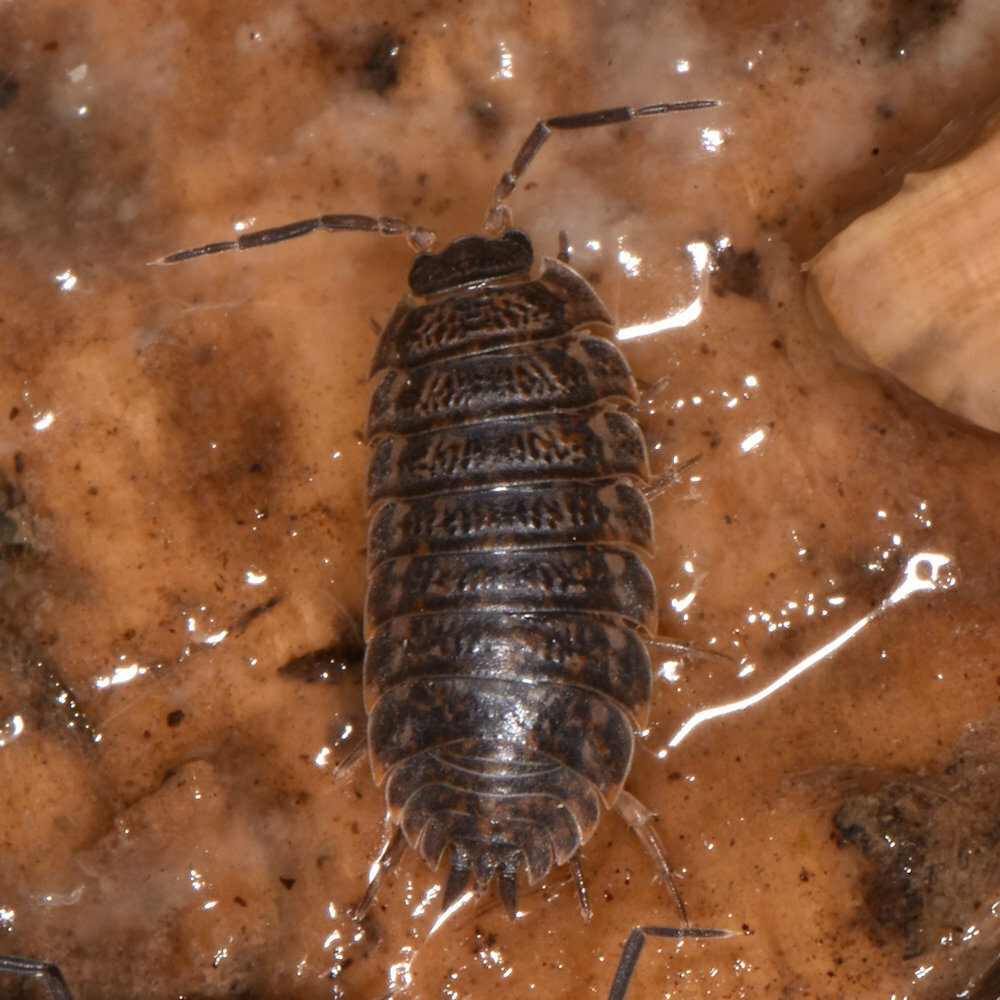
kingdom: Animalia
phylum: Arthropoda
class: Malacostraca
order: Isopoda
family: Trachelipodidae
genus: Trachelipus
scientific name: Trachelipus rathkii
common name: Isopod
